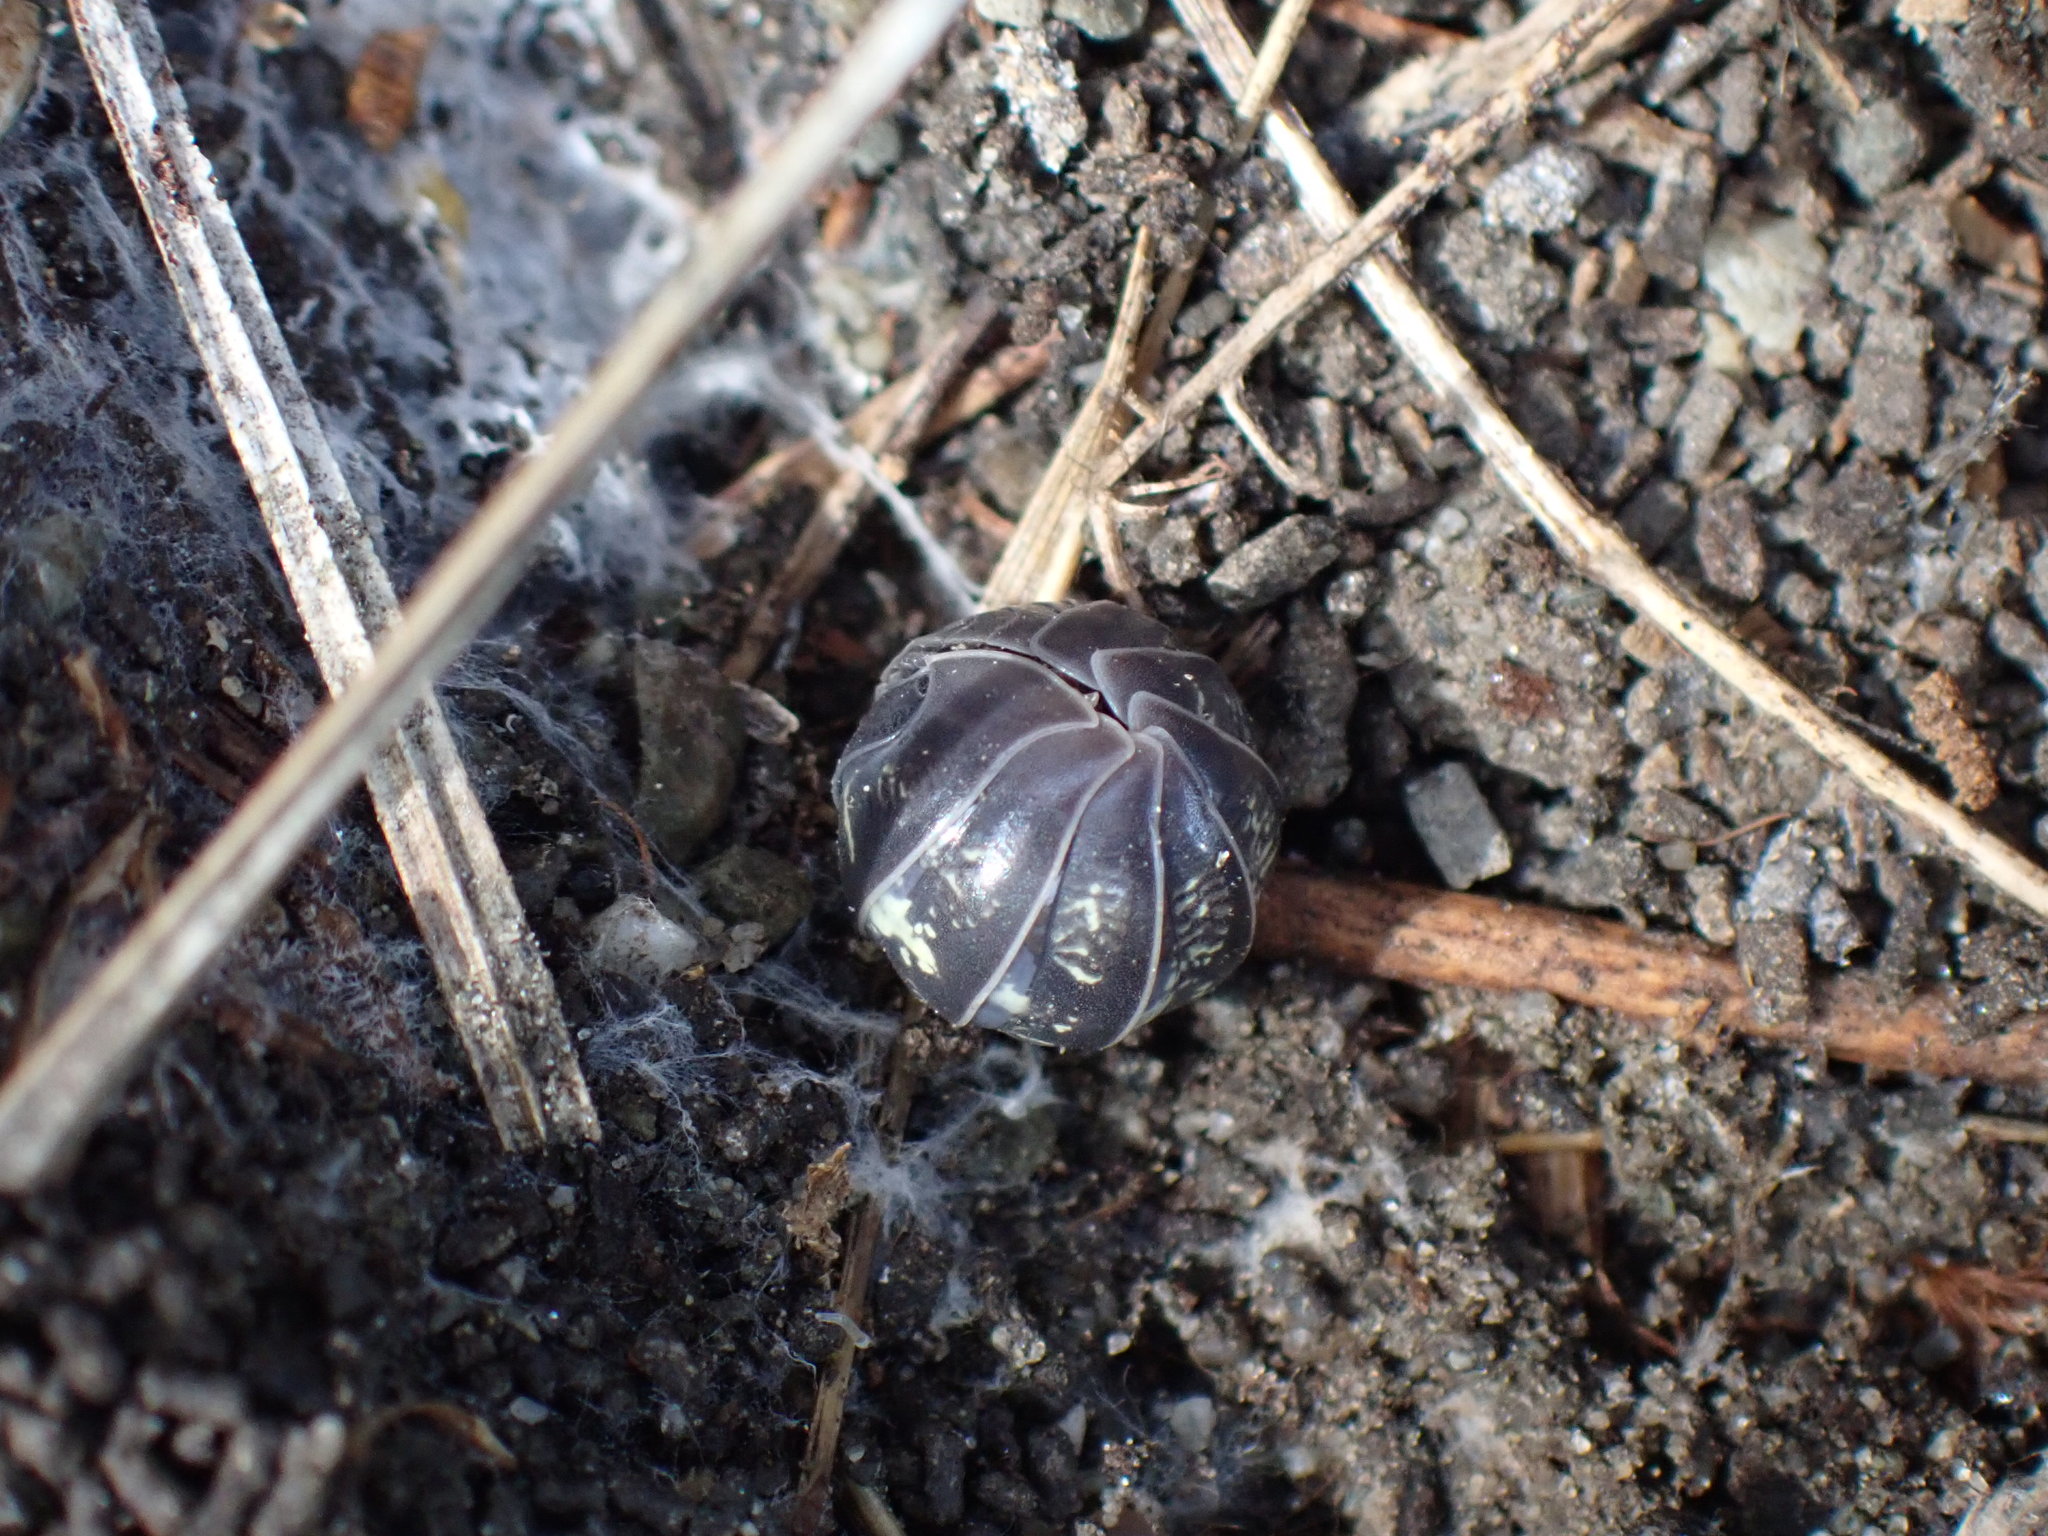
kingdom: Animalia
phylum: Arthropoda
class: Malacostraca
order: Isopoda
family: Armadillidiidae
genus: Armadillidium
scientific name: Armadillidium vulgare
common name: Common pill woodlouse
